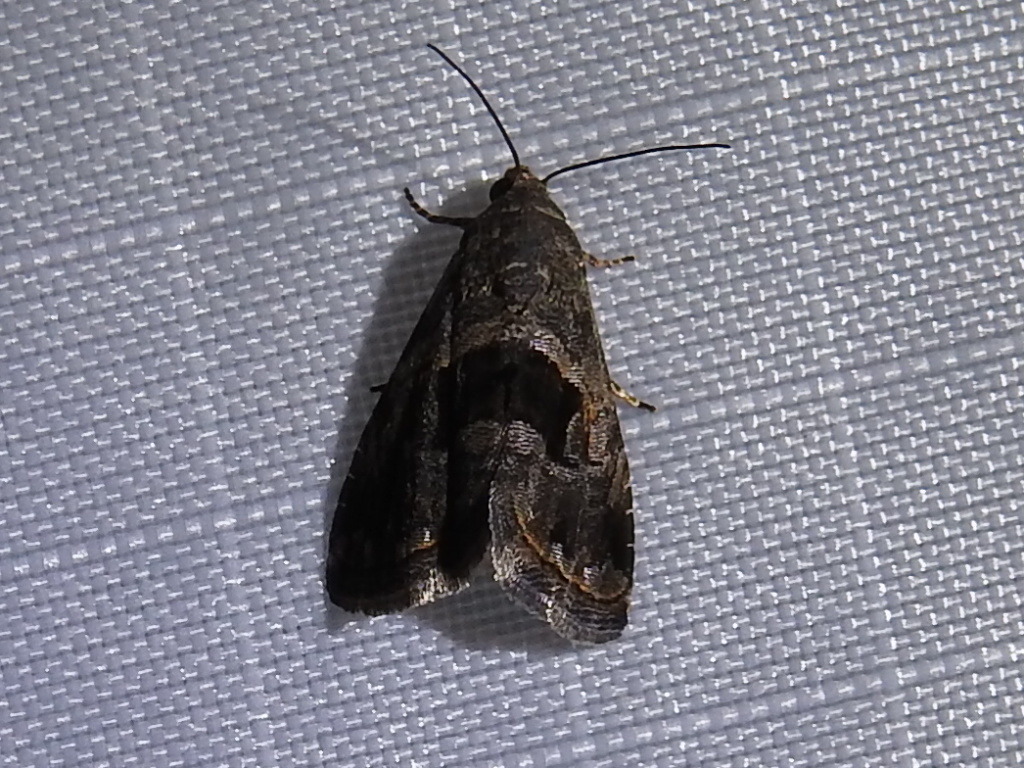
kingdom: Animalia
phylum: Arthropoda
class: Insecta
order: Lepidoptera
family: Noctuidae
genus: Tripudia
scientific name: Tripudia quadrifera
